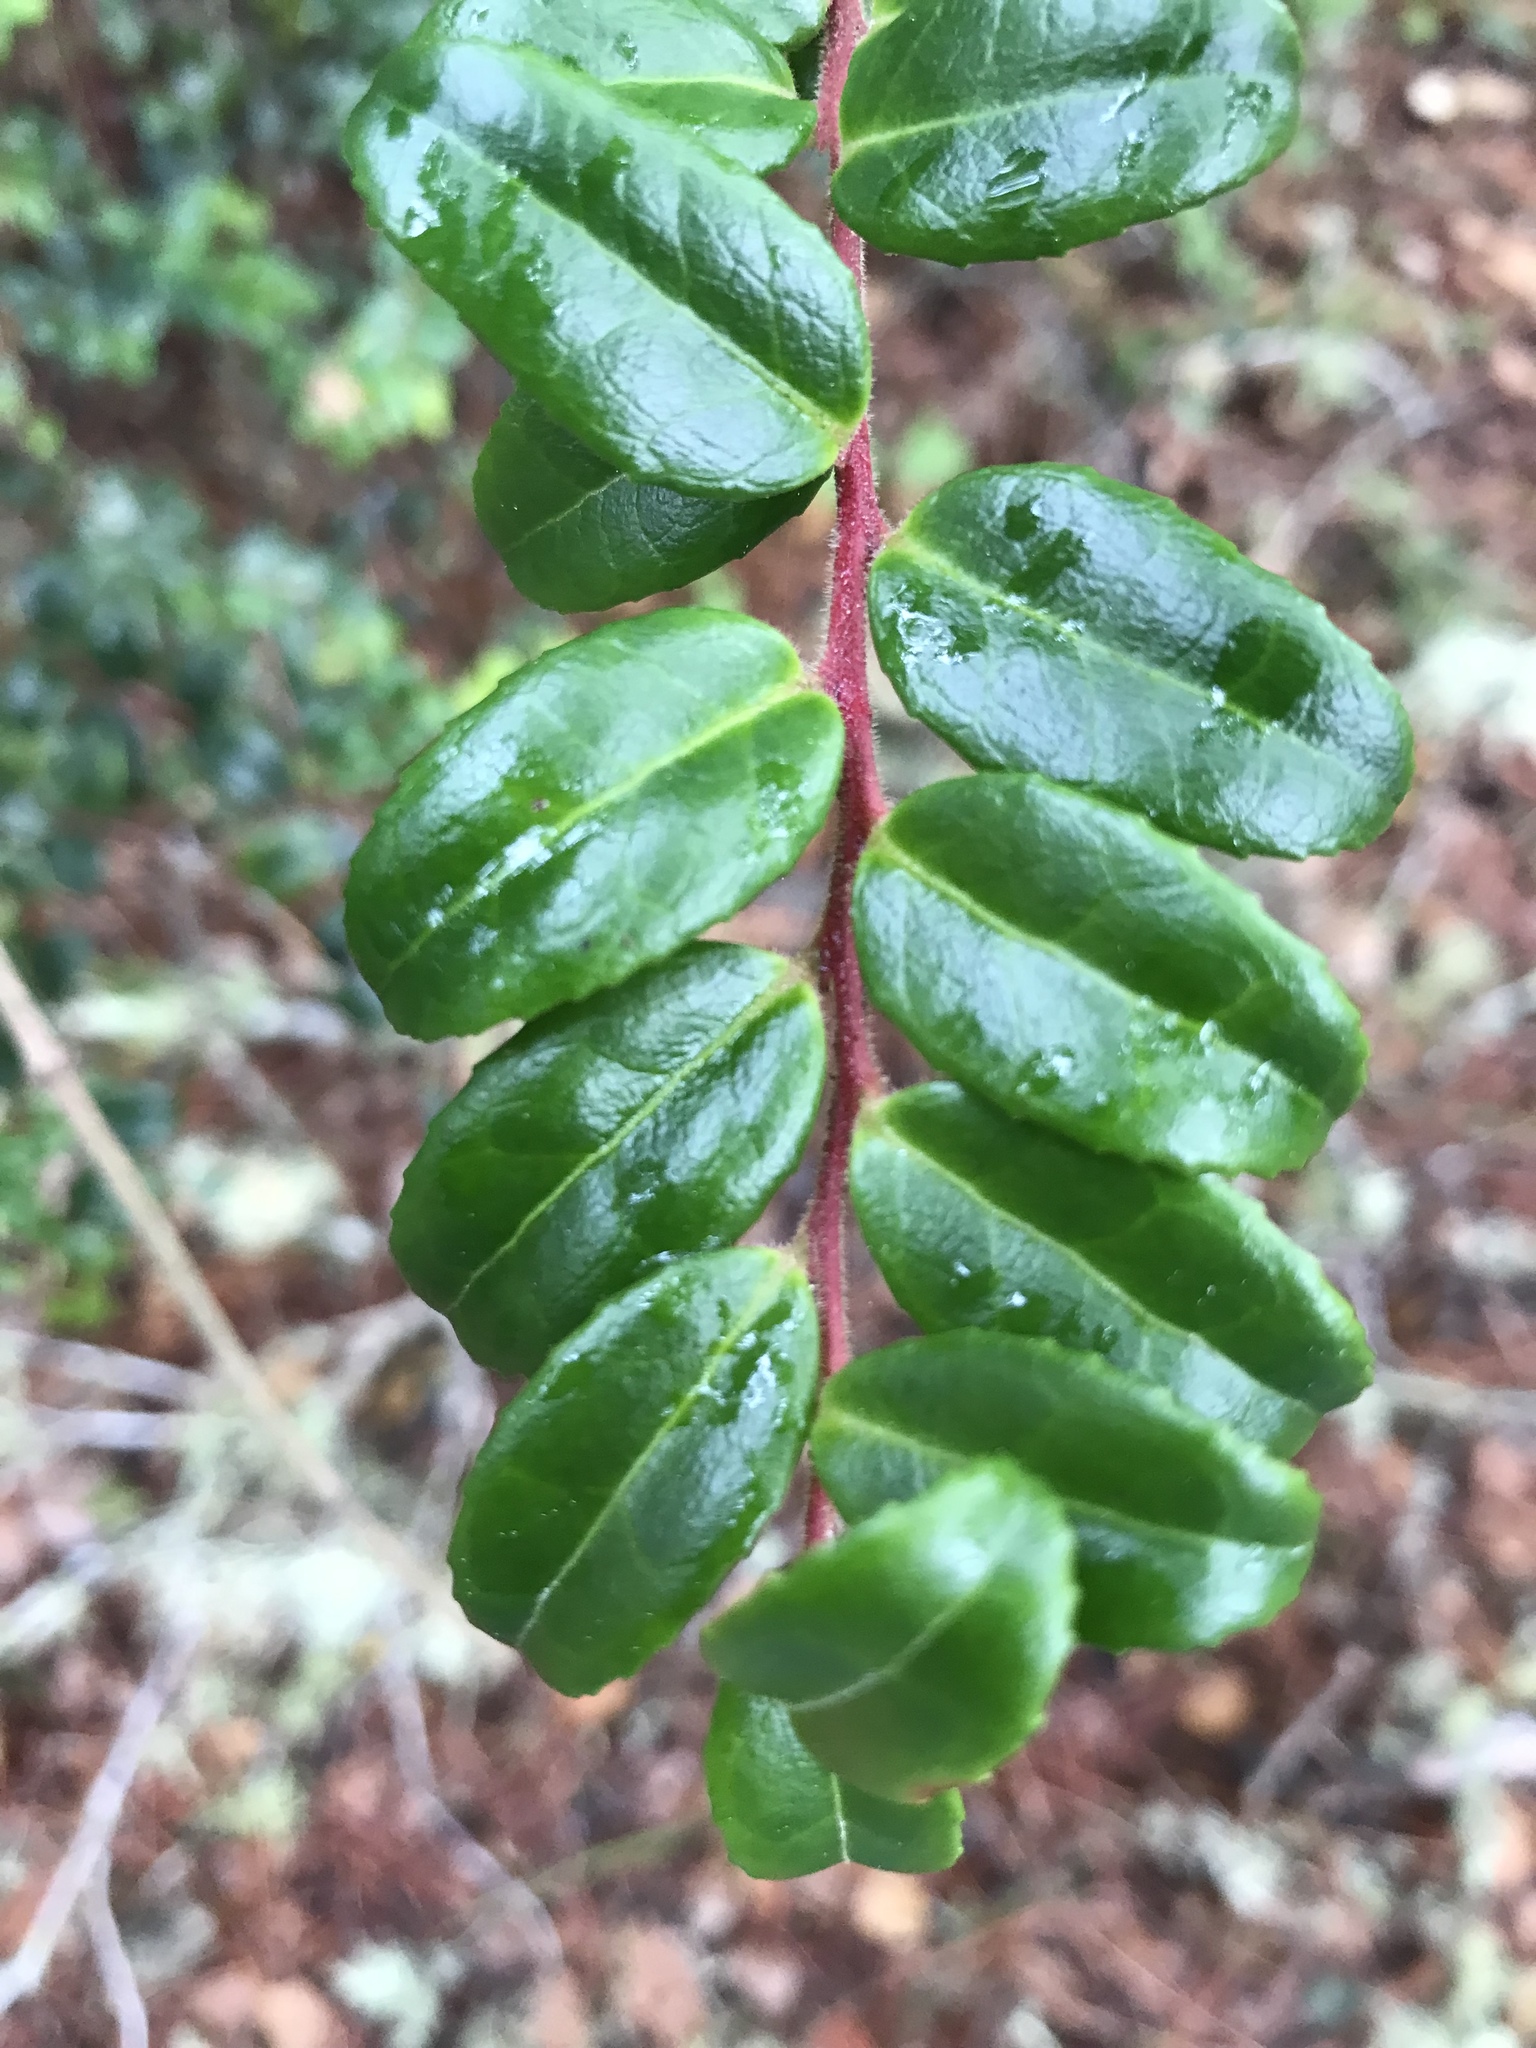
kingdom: Plantae
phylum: Tracheophyta
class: Magnoliopsida
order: Ericales
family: Ericaceae
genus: Vaccinium
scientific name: Vaccinium ovatum
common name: California-huckleberry
